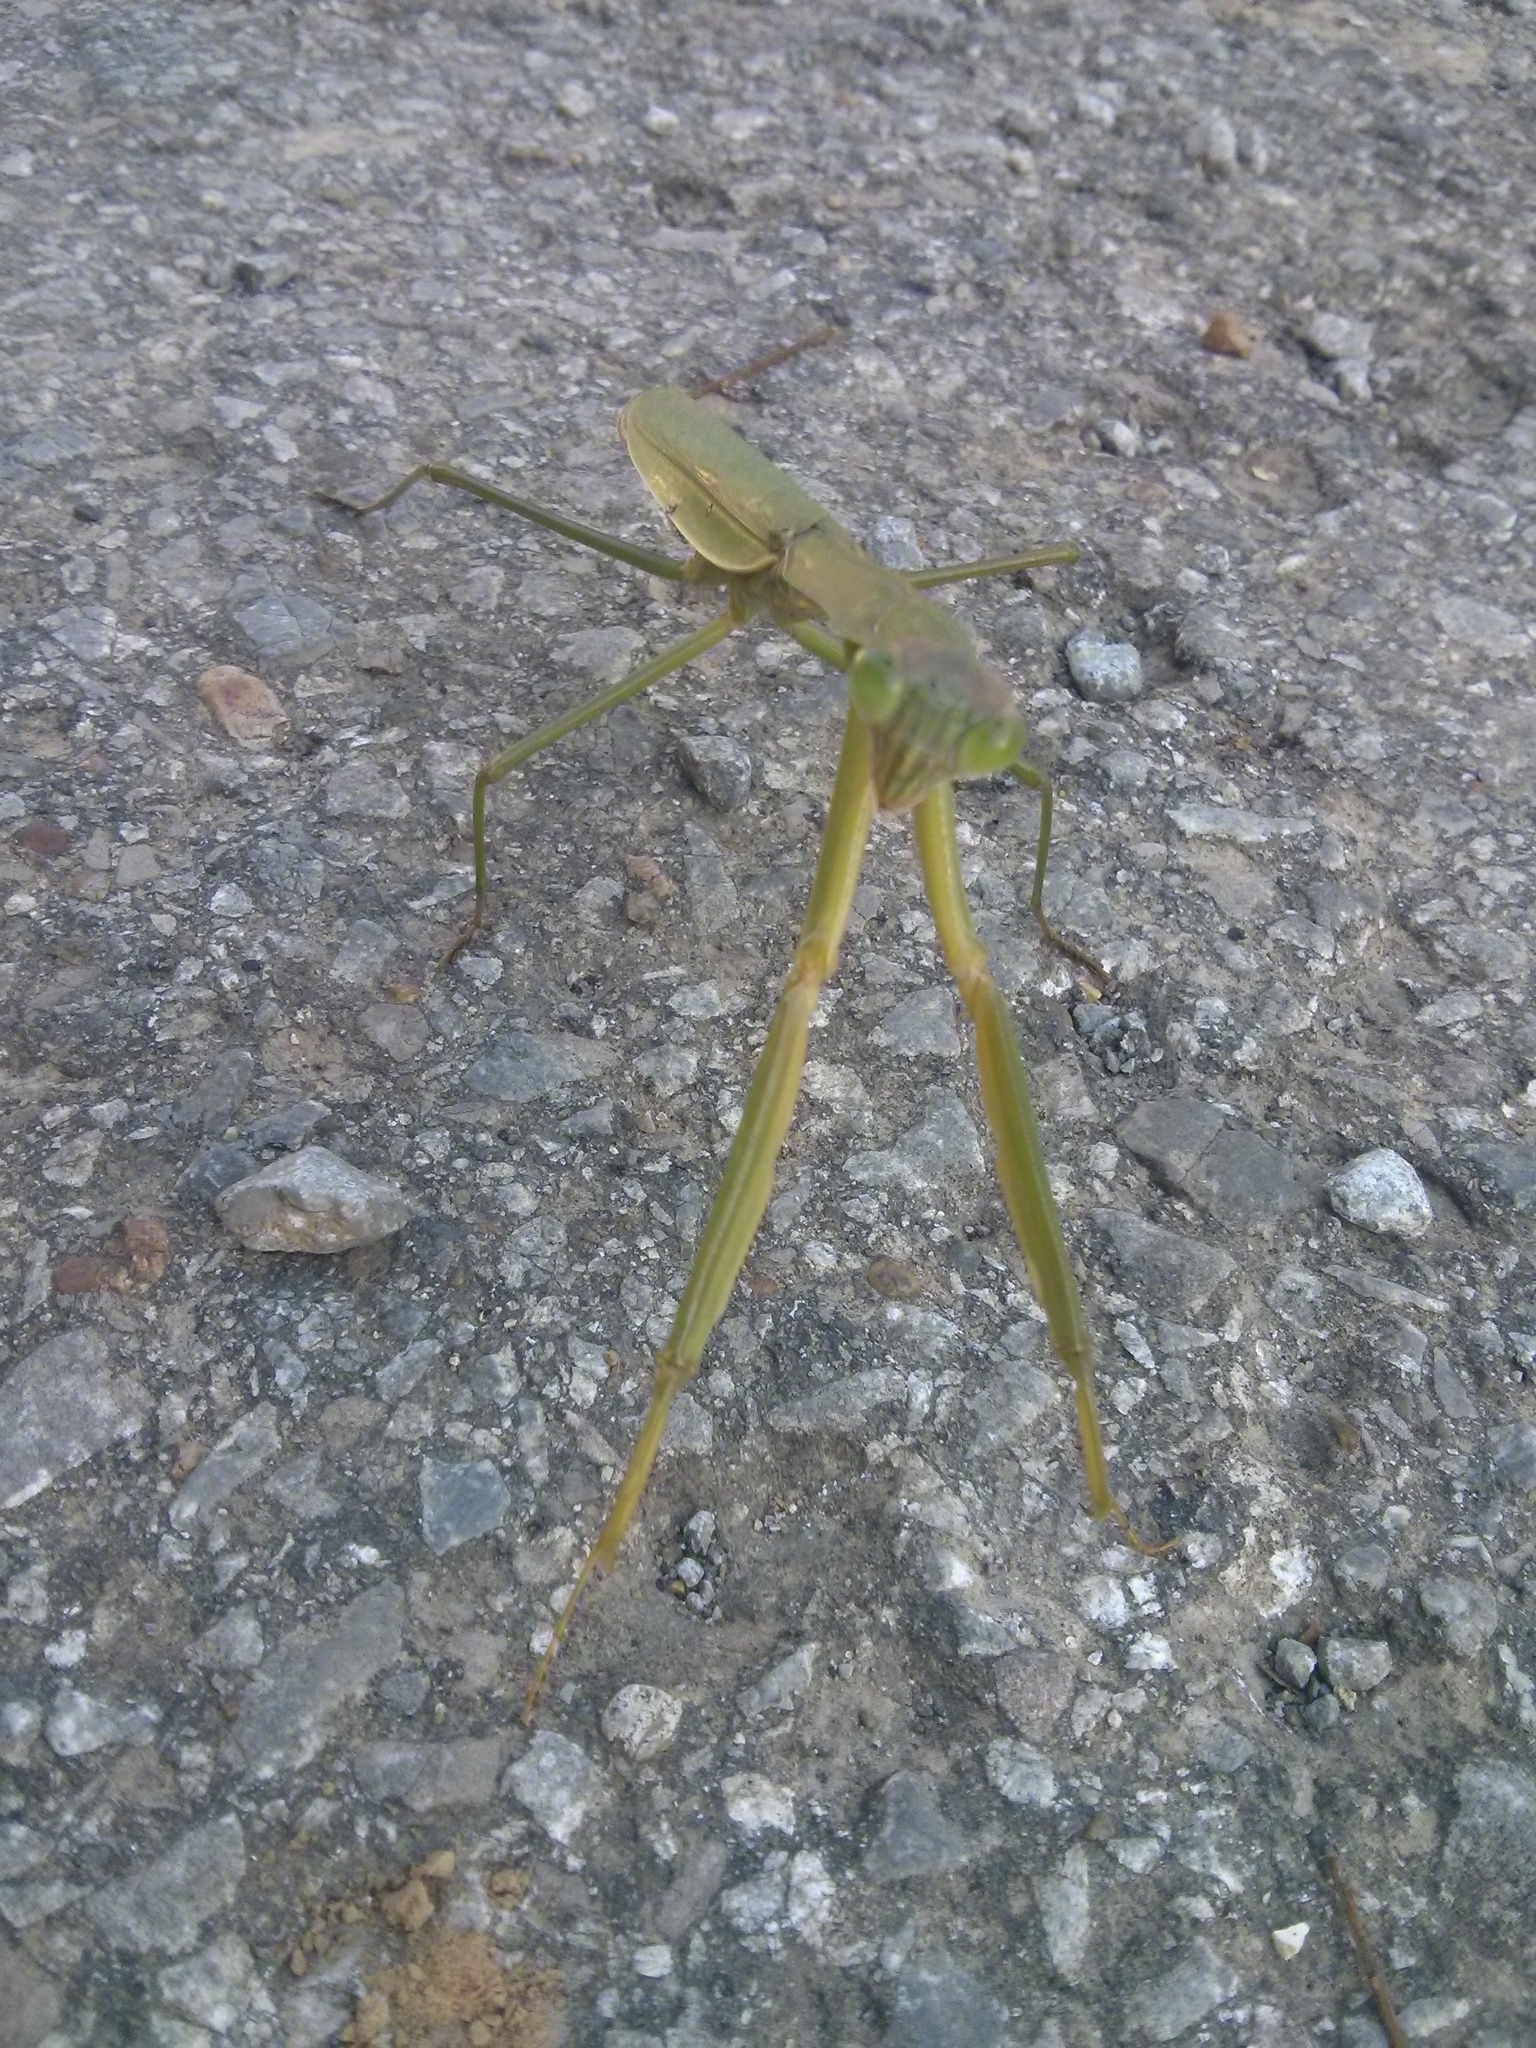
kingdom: Animalia
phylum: Arthropoda
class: Insecta
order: Mantodea
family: Mantidae
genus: Tenodera
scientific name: Tenodera sinensis
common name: Chinese mantis
